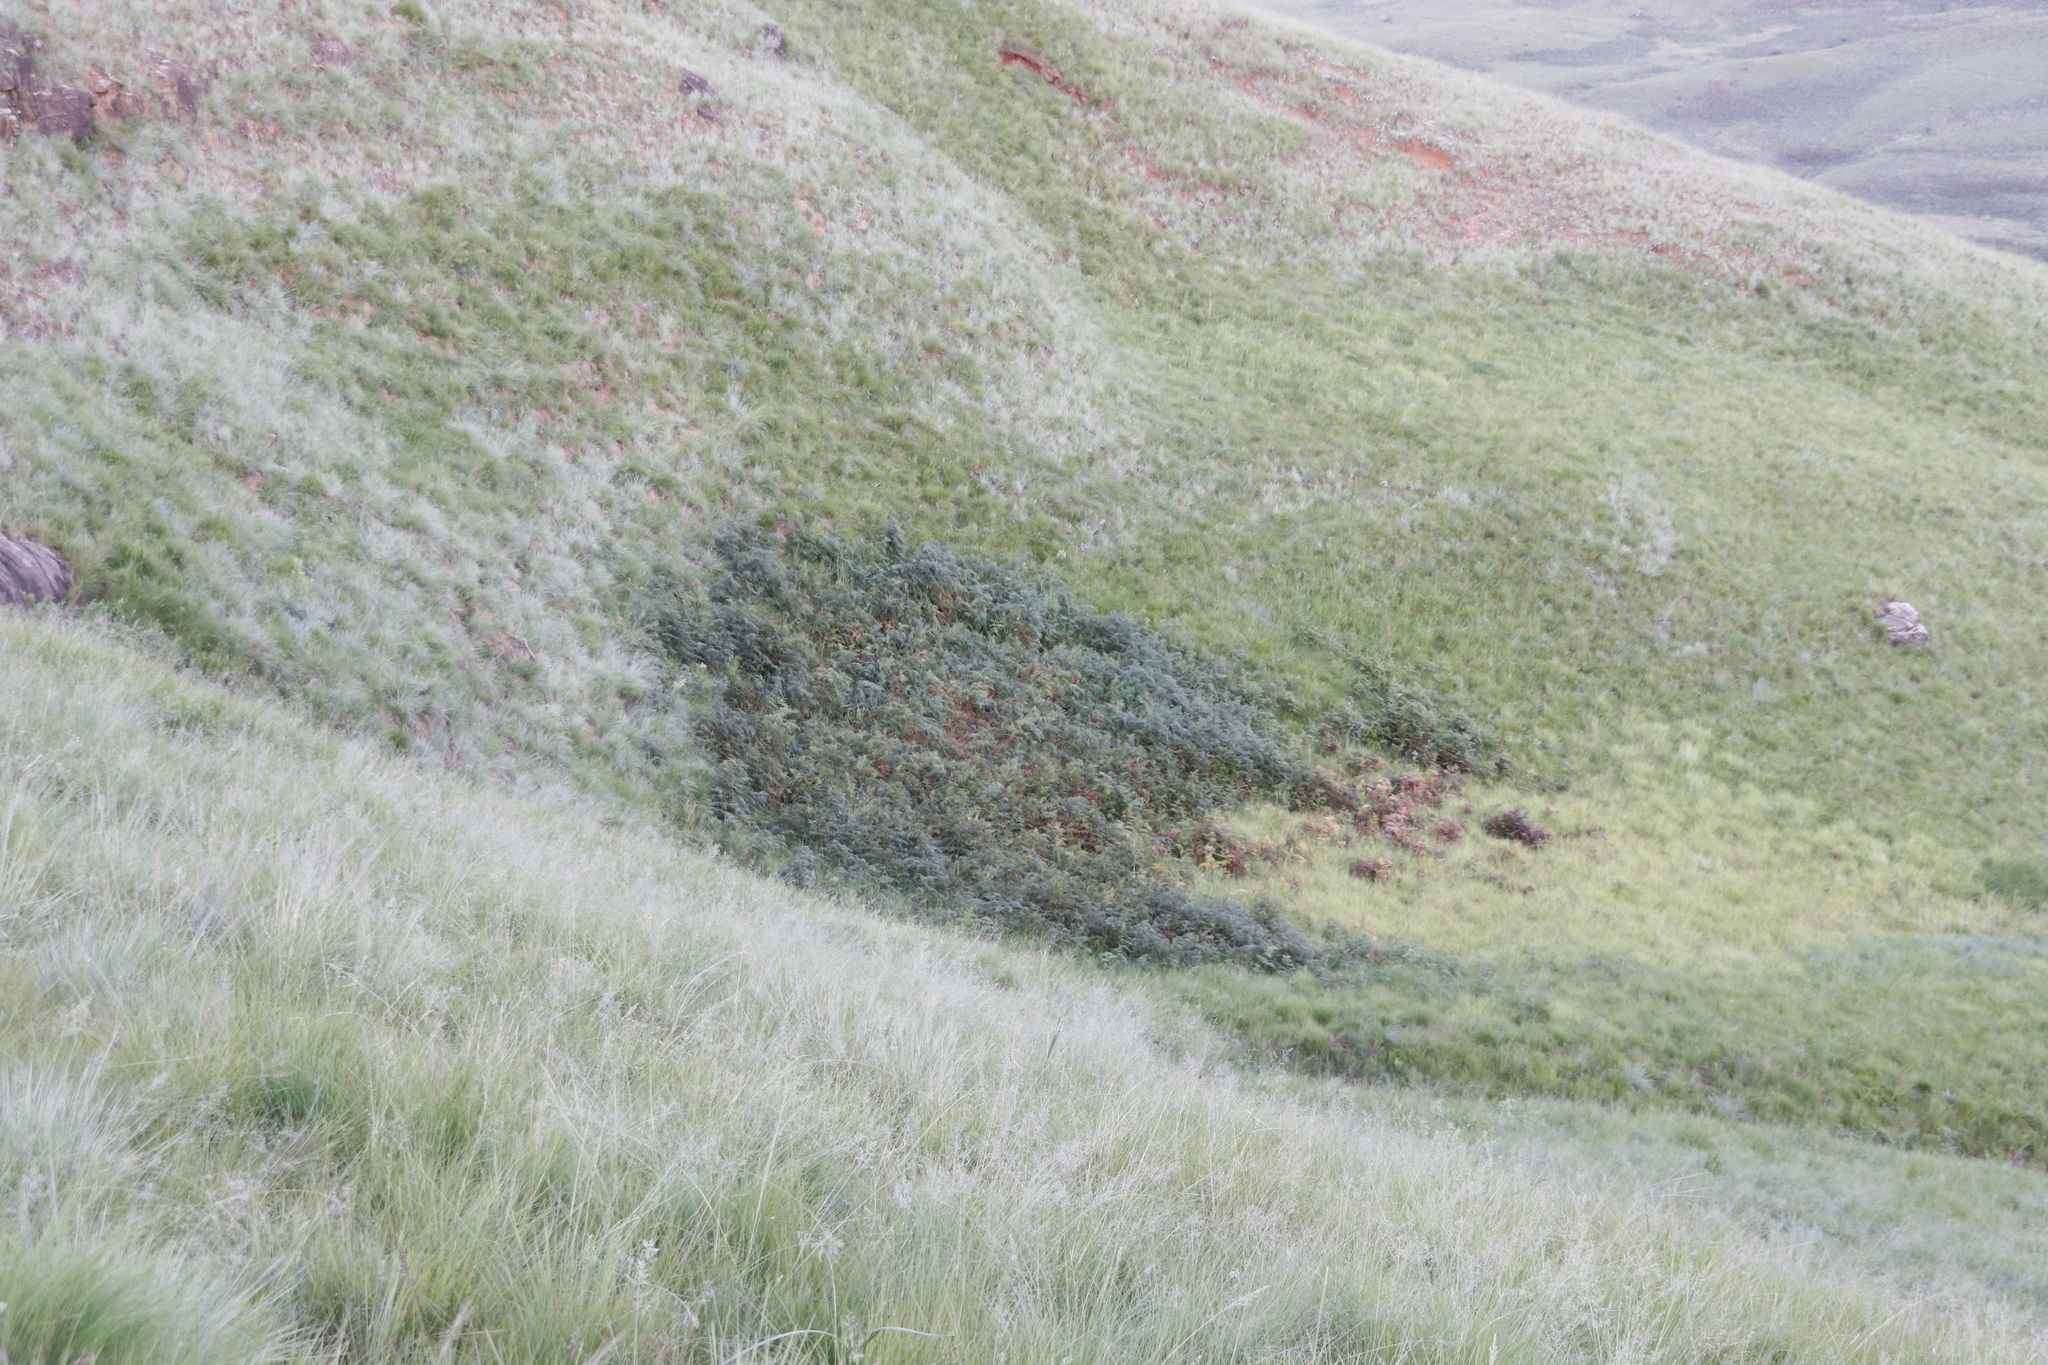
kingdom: Plantae
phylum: Tracheophyta
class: Polypodiopsida
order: Polypodiales
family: Dennstaedtiaceae
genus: Pteridium
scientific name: Pteridium aquilinum
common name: Bracken
